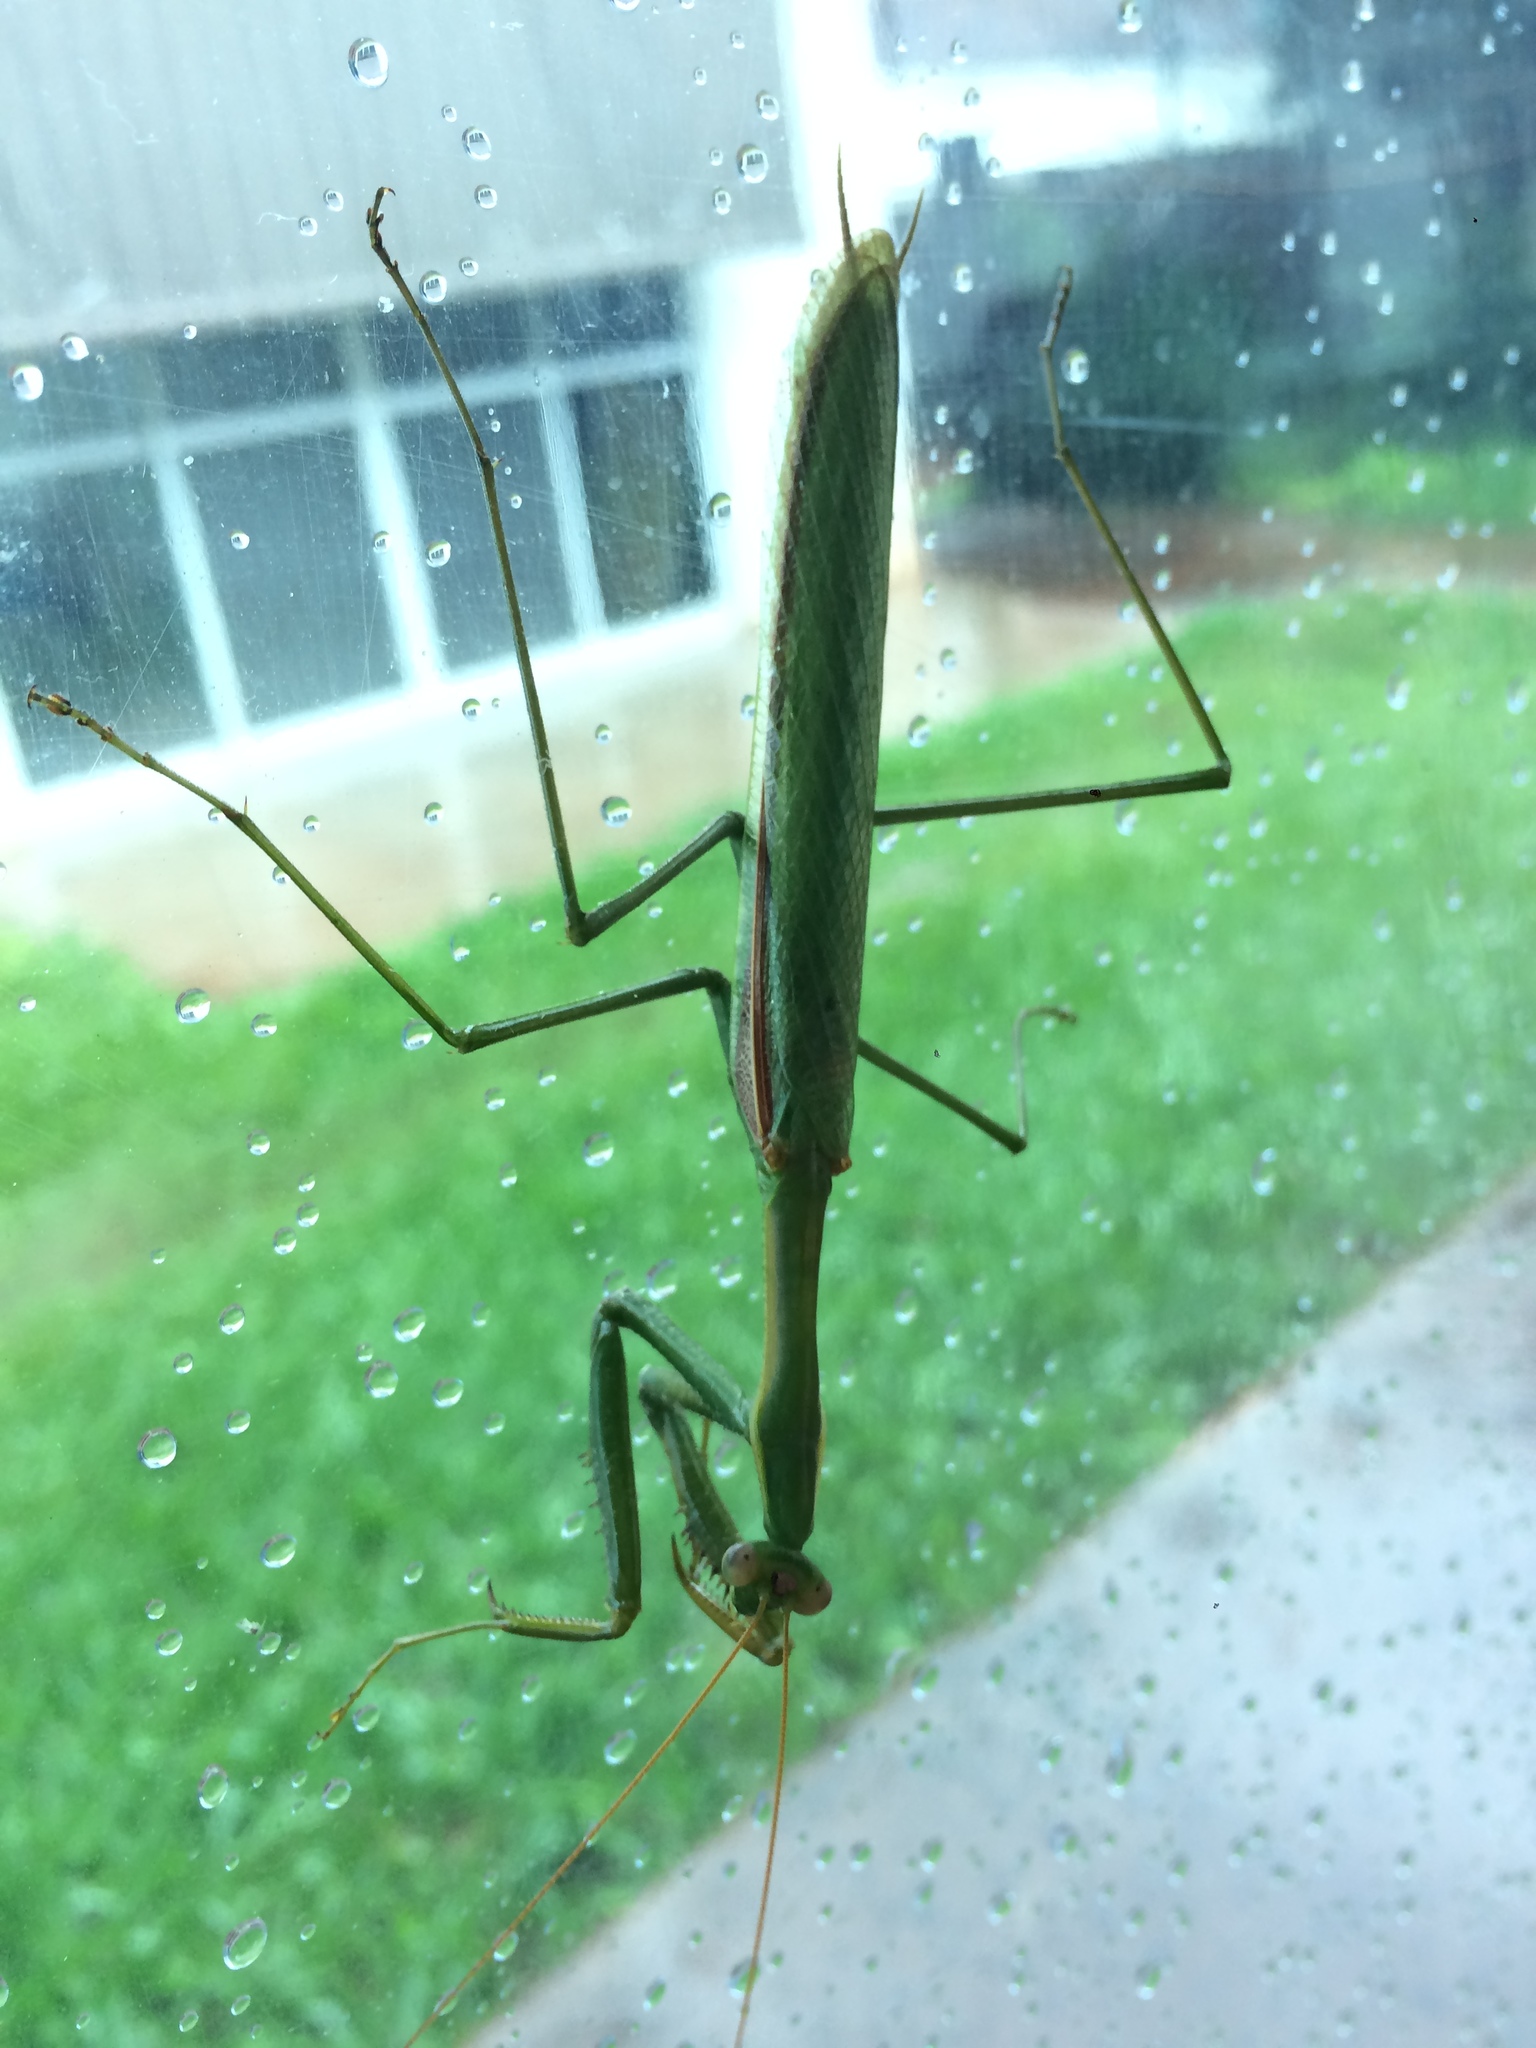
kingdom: Animalia
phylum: Arthropoda
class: Insecta
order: Mantodea
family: Coptopterygidae
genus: Coptopteryx
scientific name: Coptopteryx argentina
